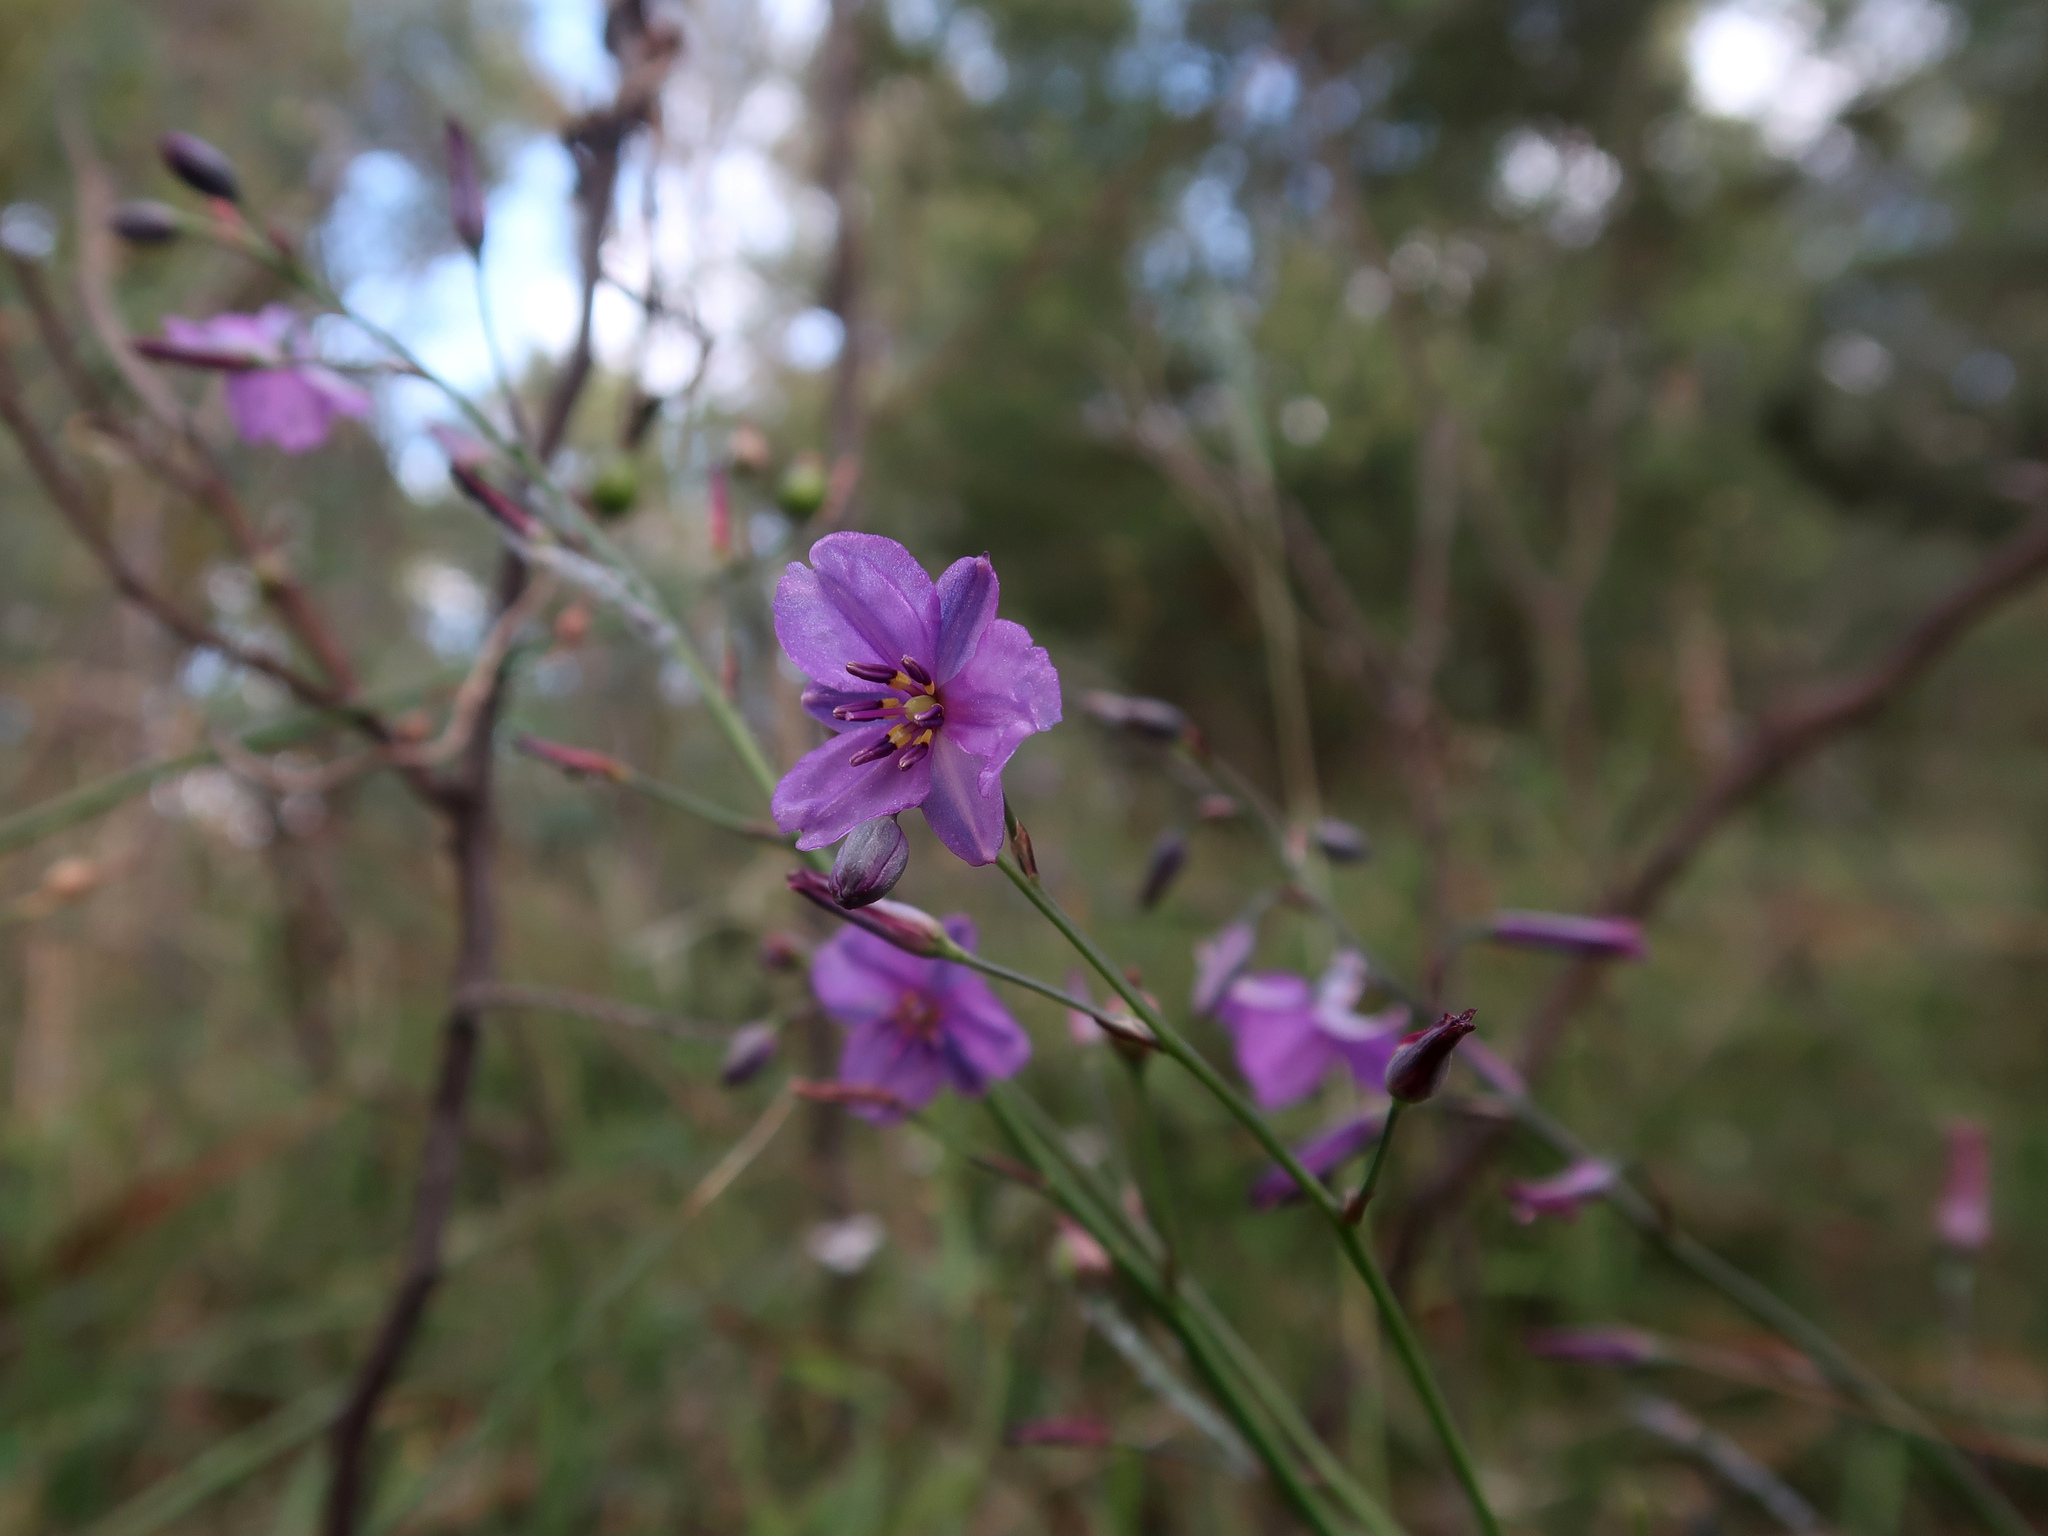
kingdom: Plantae
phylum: Tracheophyta
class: Liliopsida
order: Asparagales
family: Asparagaceae
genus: Arthropodium
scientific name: Arthropodium strictum
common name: Chocolate-lily
